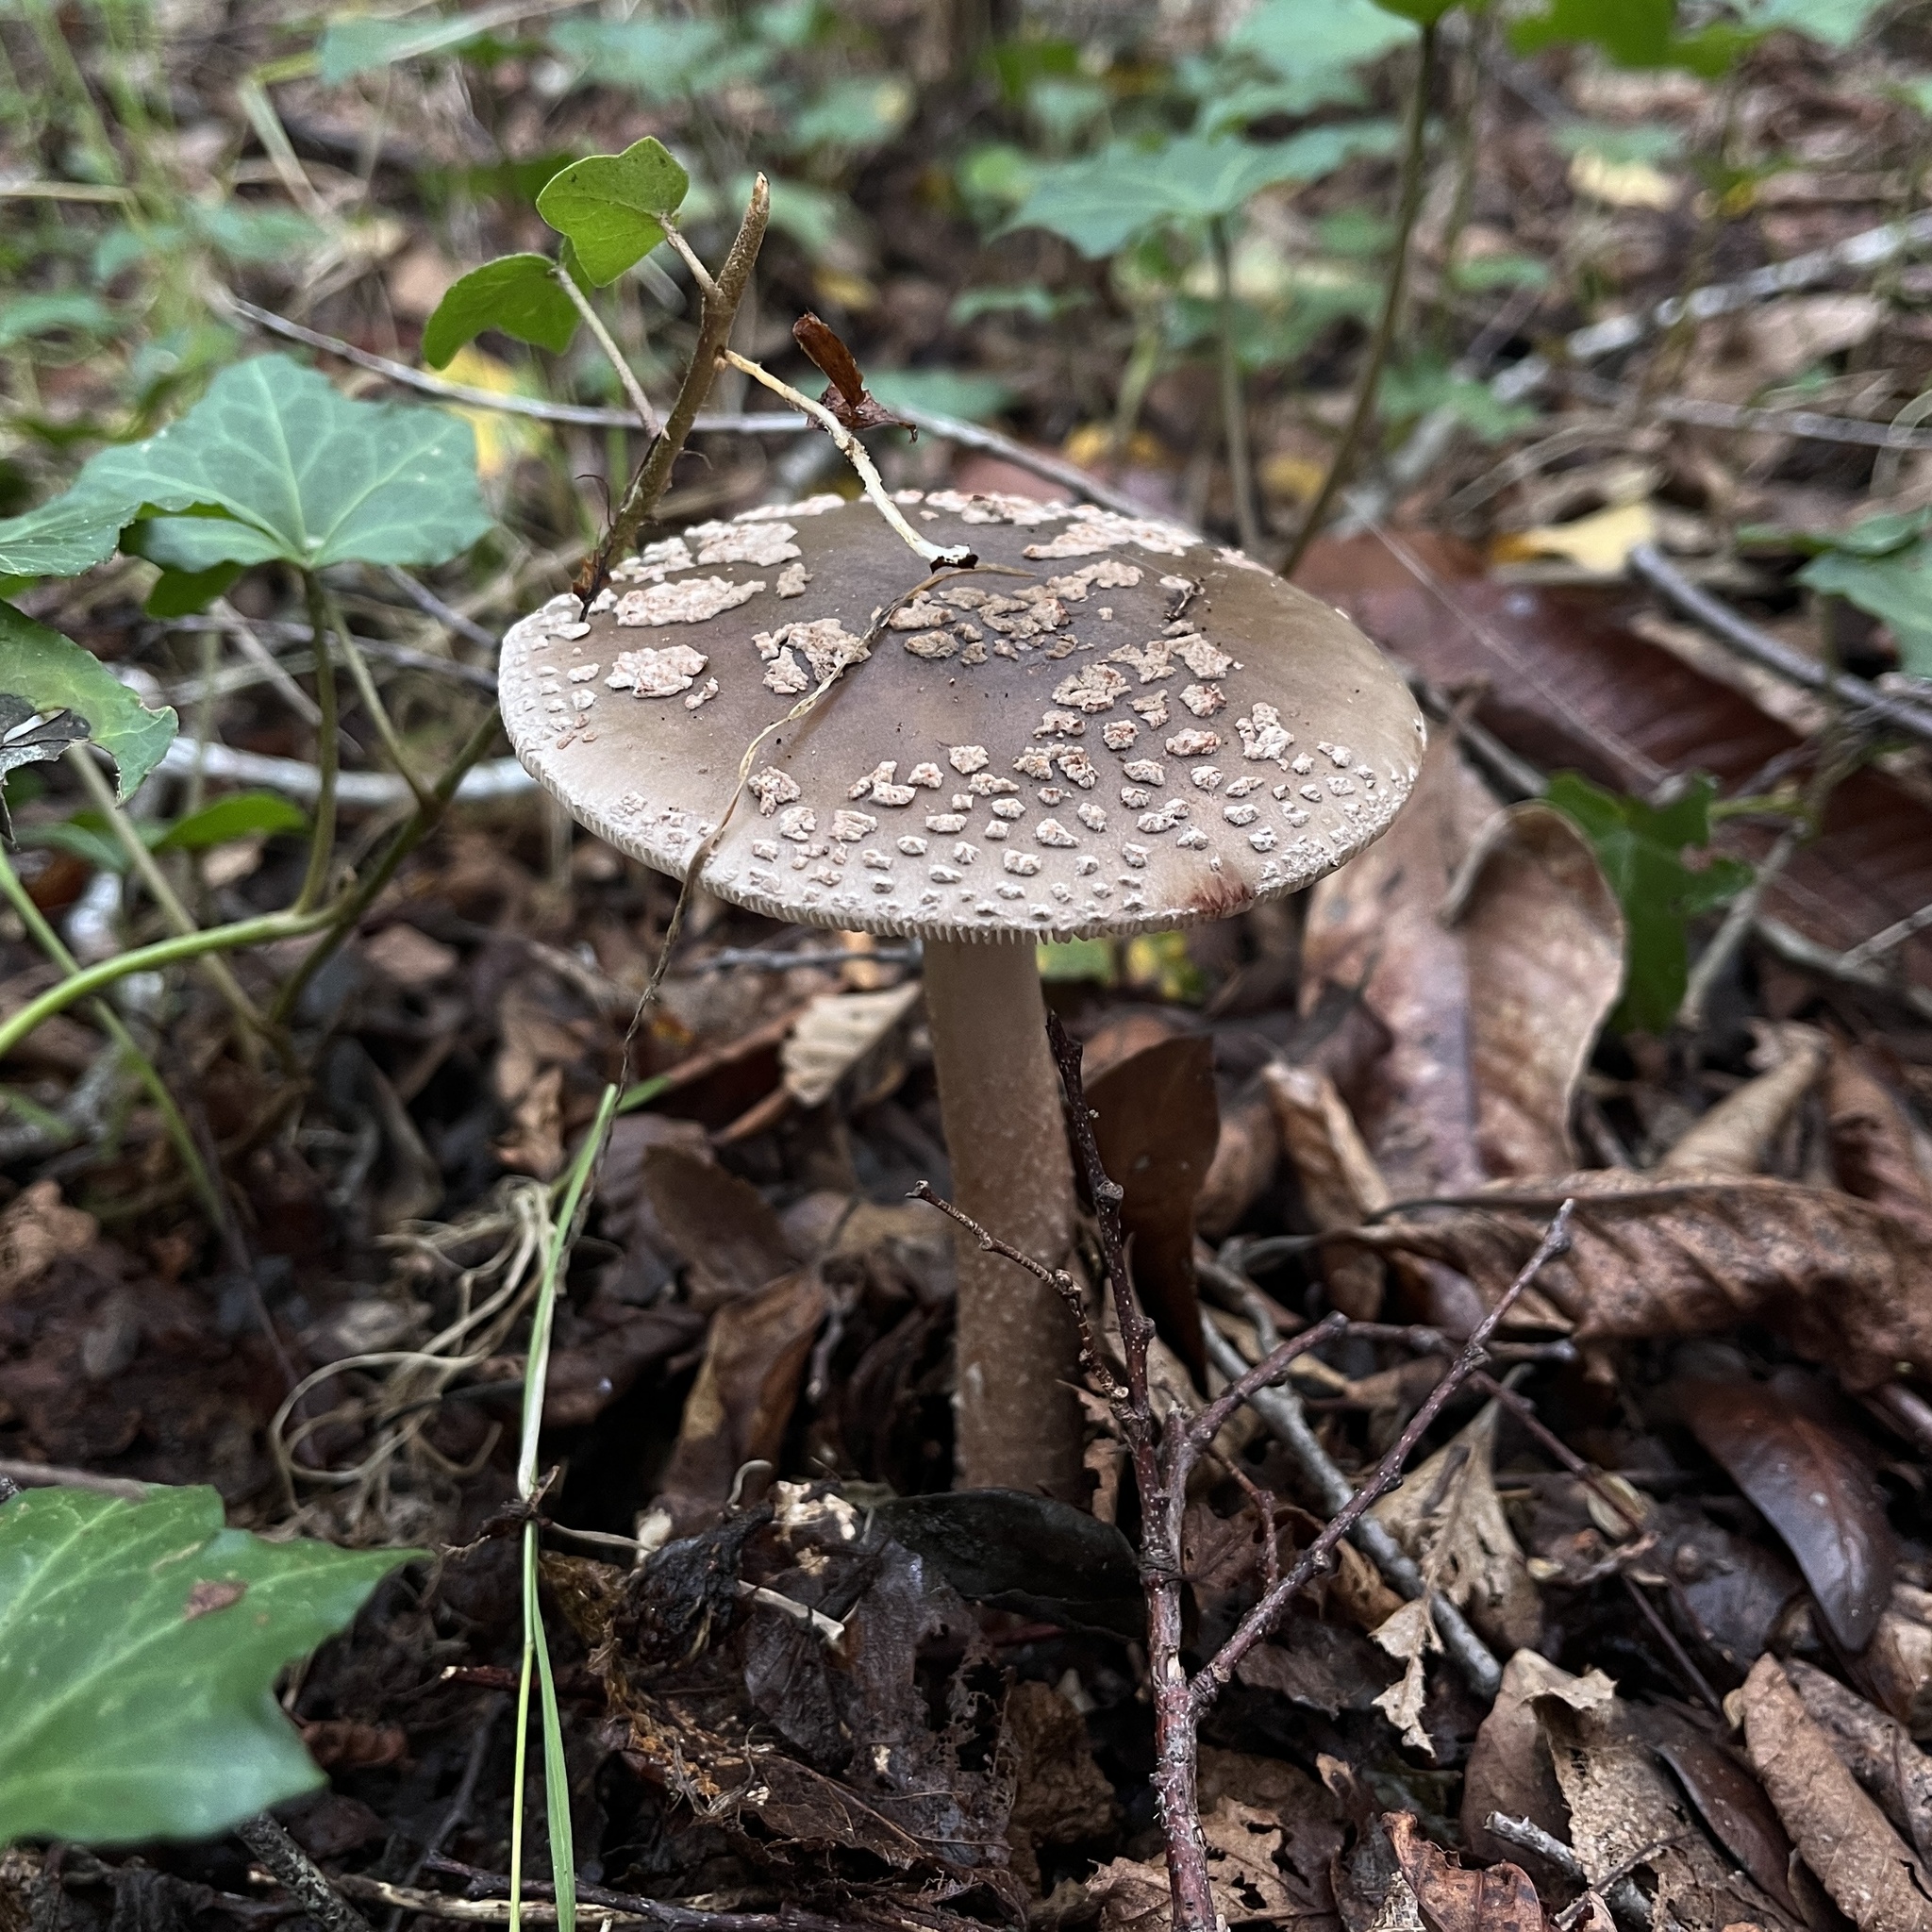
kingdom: Fungi
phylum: Basidiomycota
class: Agaricomycetes
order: Agaricales
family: Amanitaceae
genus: Amanita
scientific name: Amanita rubescens
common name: Blusher
